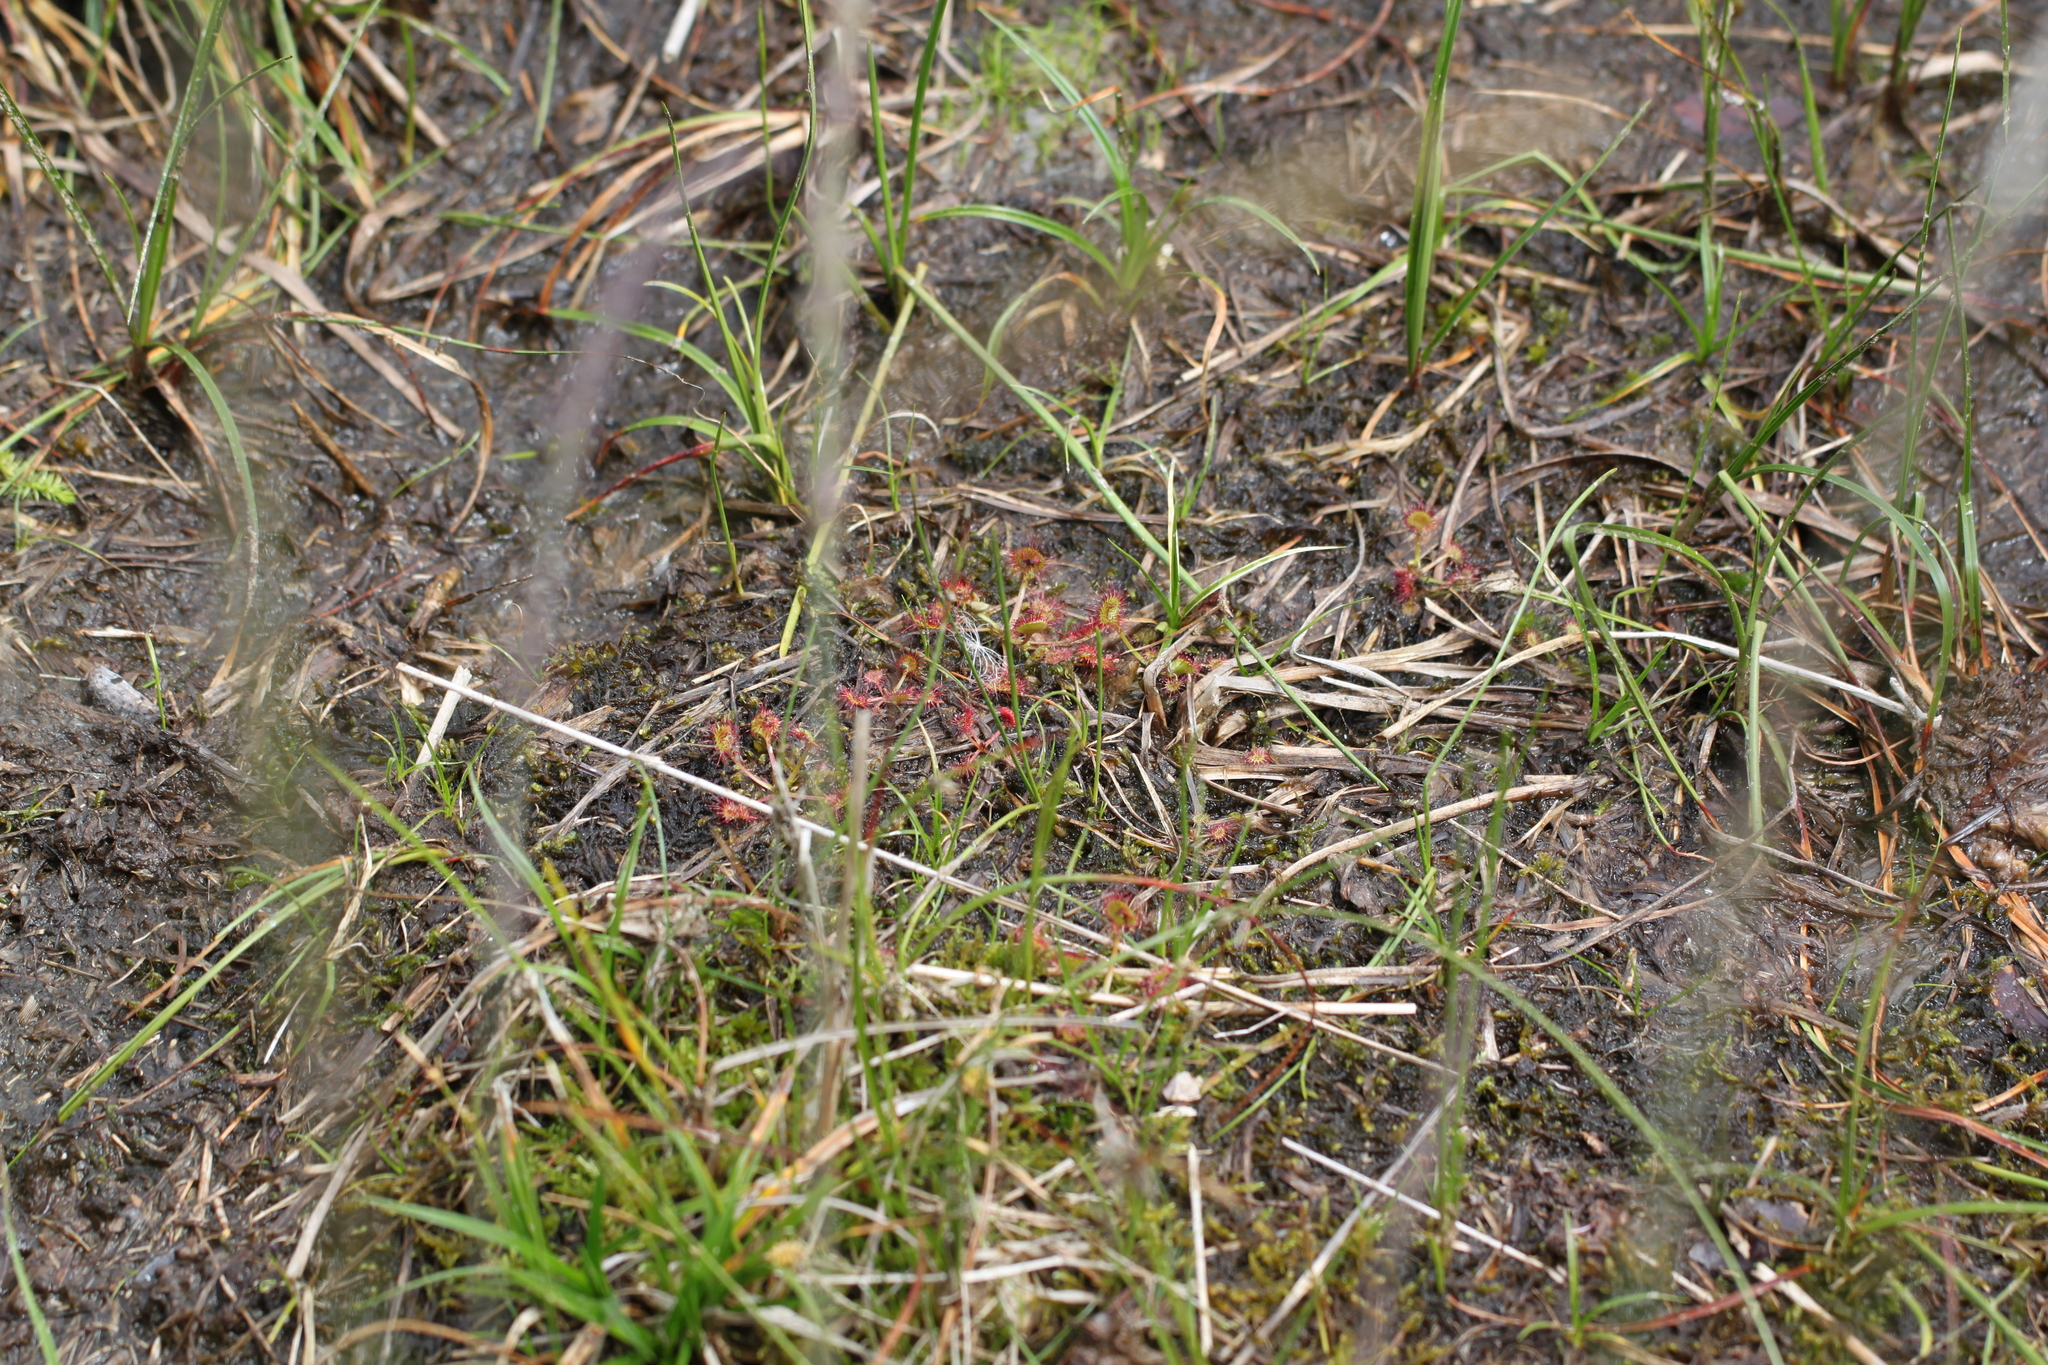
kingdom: Plantae
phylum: Tracheophyta
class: Magnoliopsida
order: Caryophyllales
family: Droseraceae
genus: Drosera
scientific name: Drosera rotundifolia
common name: Round-leaved sundew
